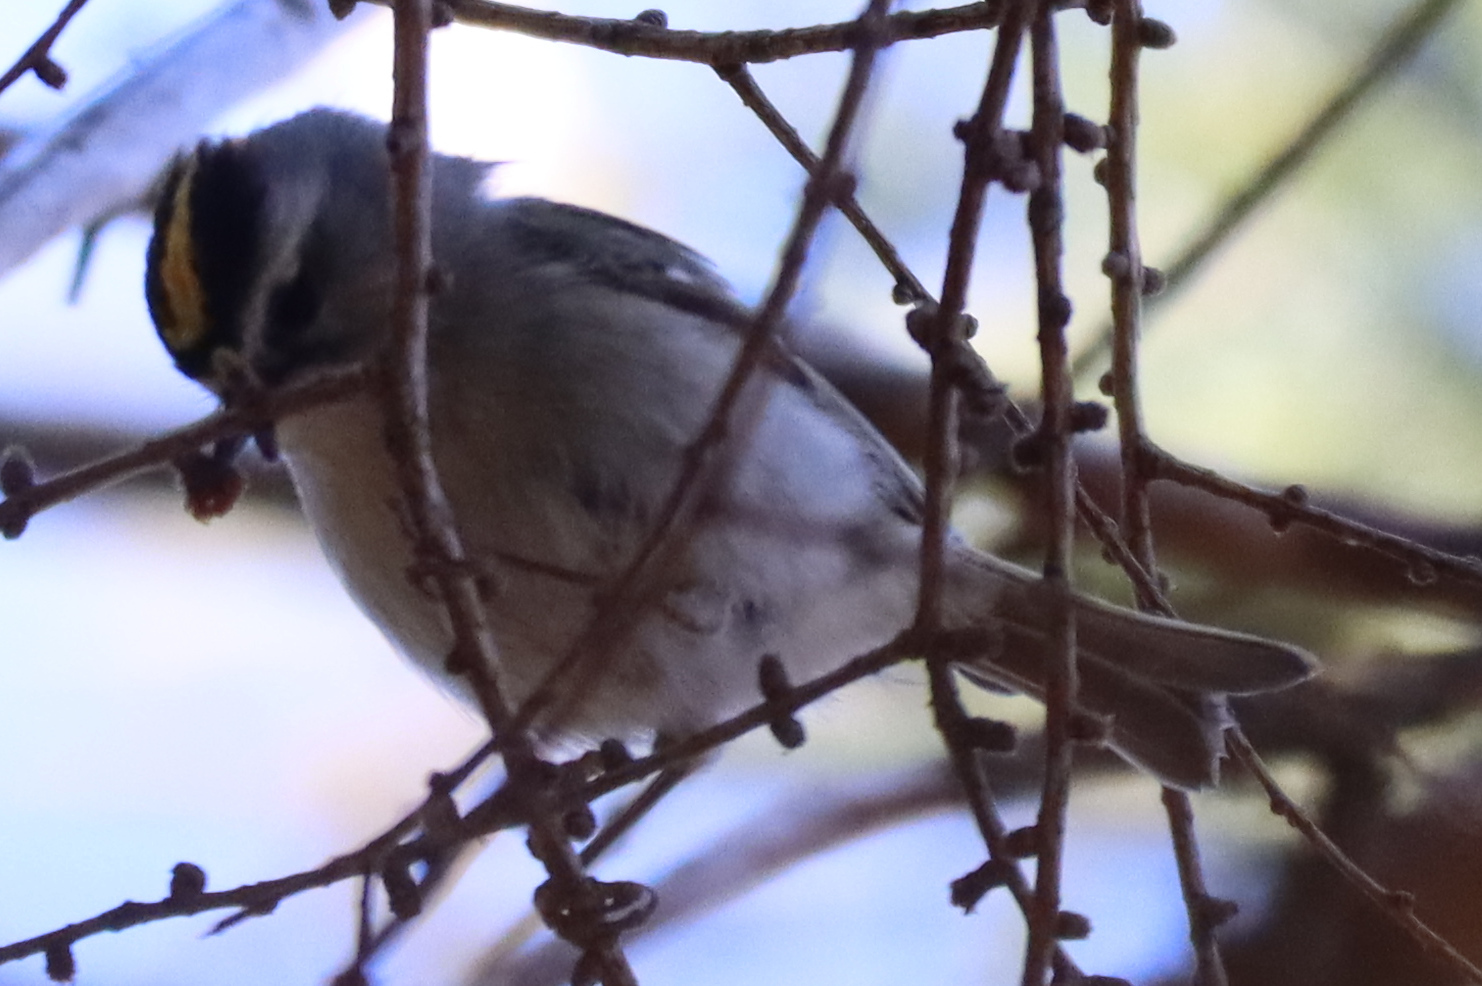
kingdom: Animalia
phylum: Chordata
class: Aves
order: Passeriformes
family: Regulidae
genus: Regulus
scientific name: Regulus satrapa
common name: Golden-crowned kinglet
